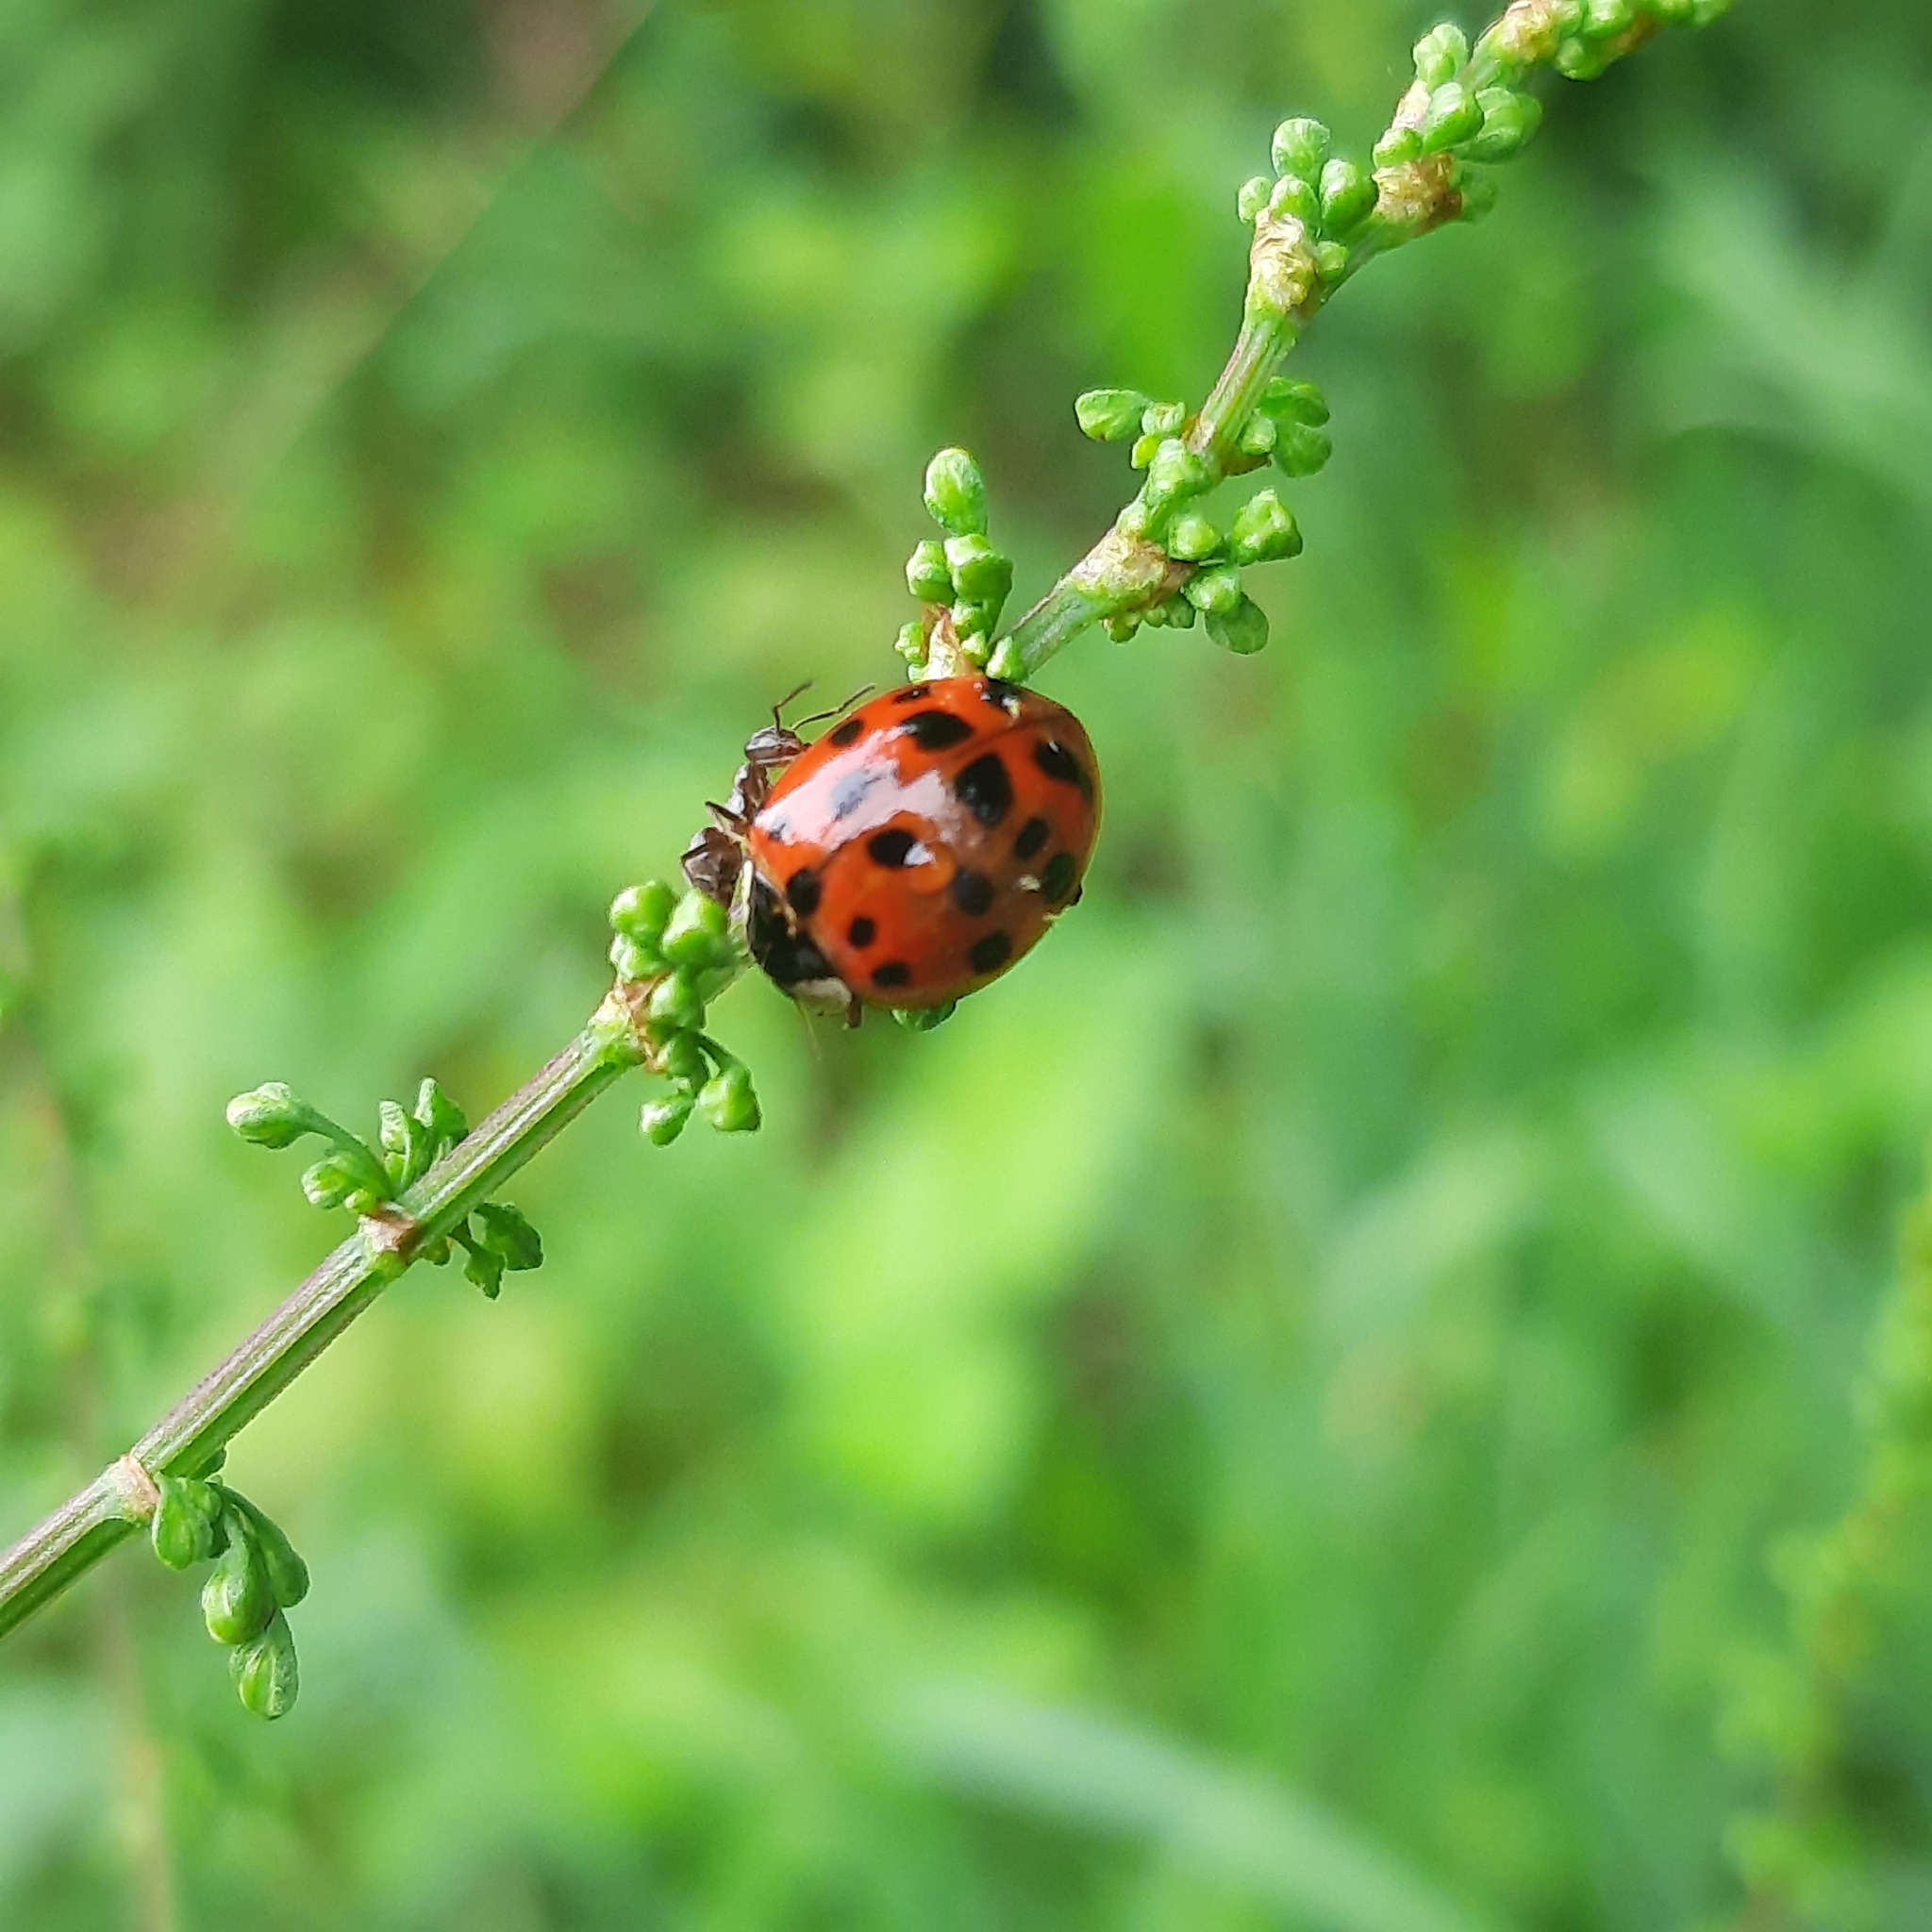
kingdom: Animalia
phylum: Arthropoda
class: Insecta
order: Coleoptera
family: Coccinellidae
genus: Harmonia
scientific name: Harmonia axyridis
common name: Harlequin ladybird
